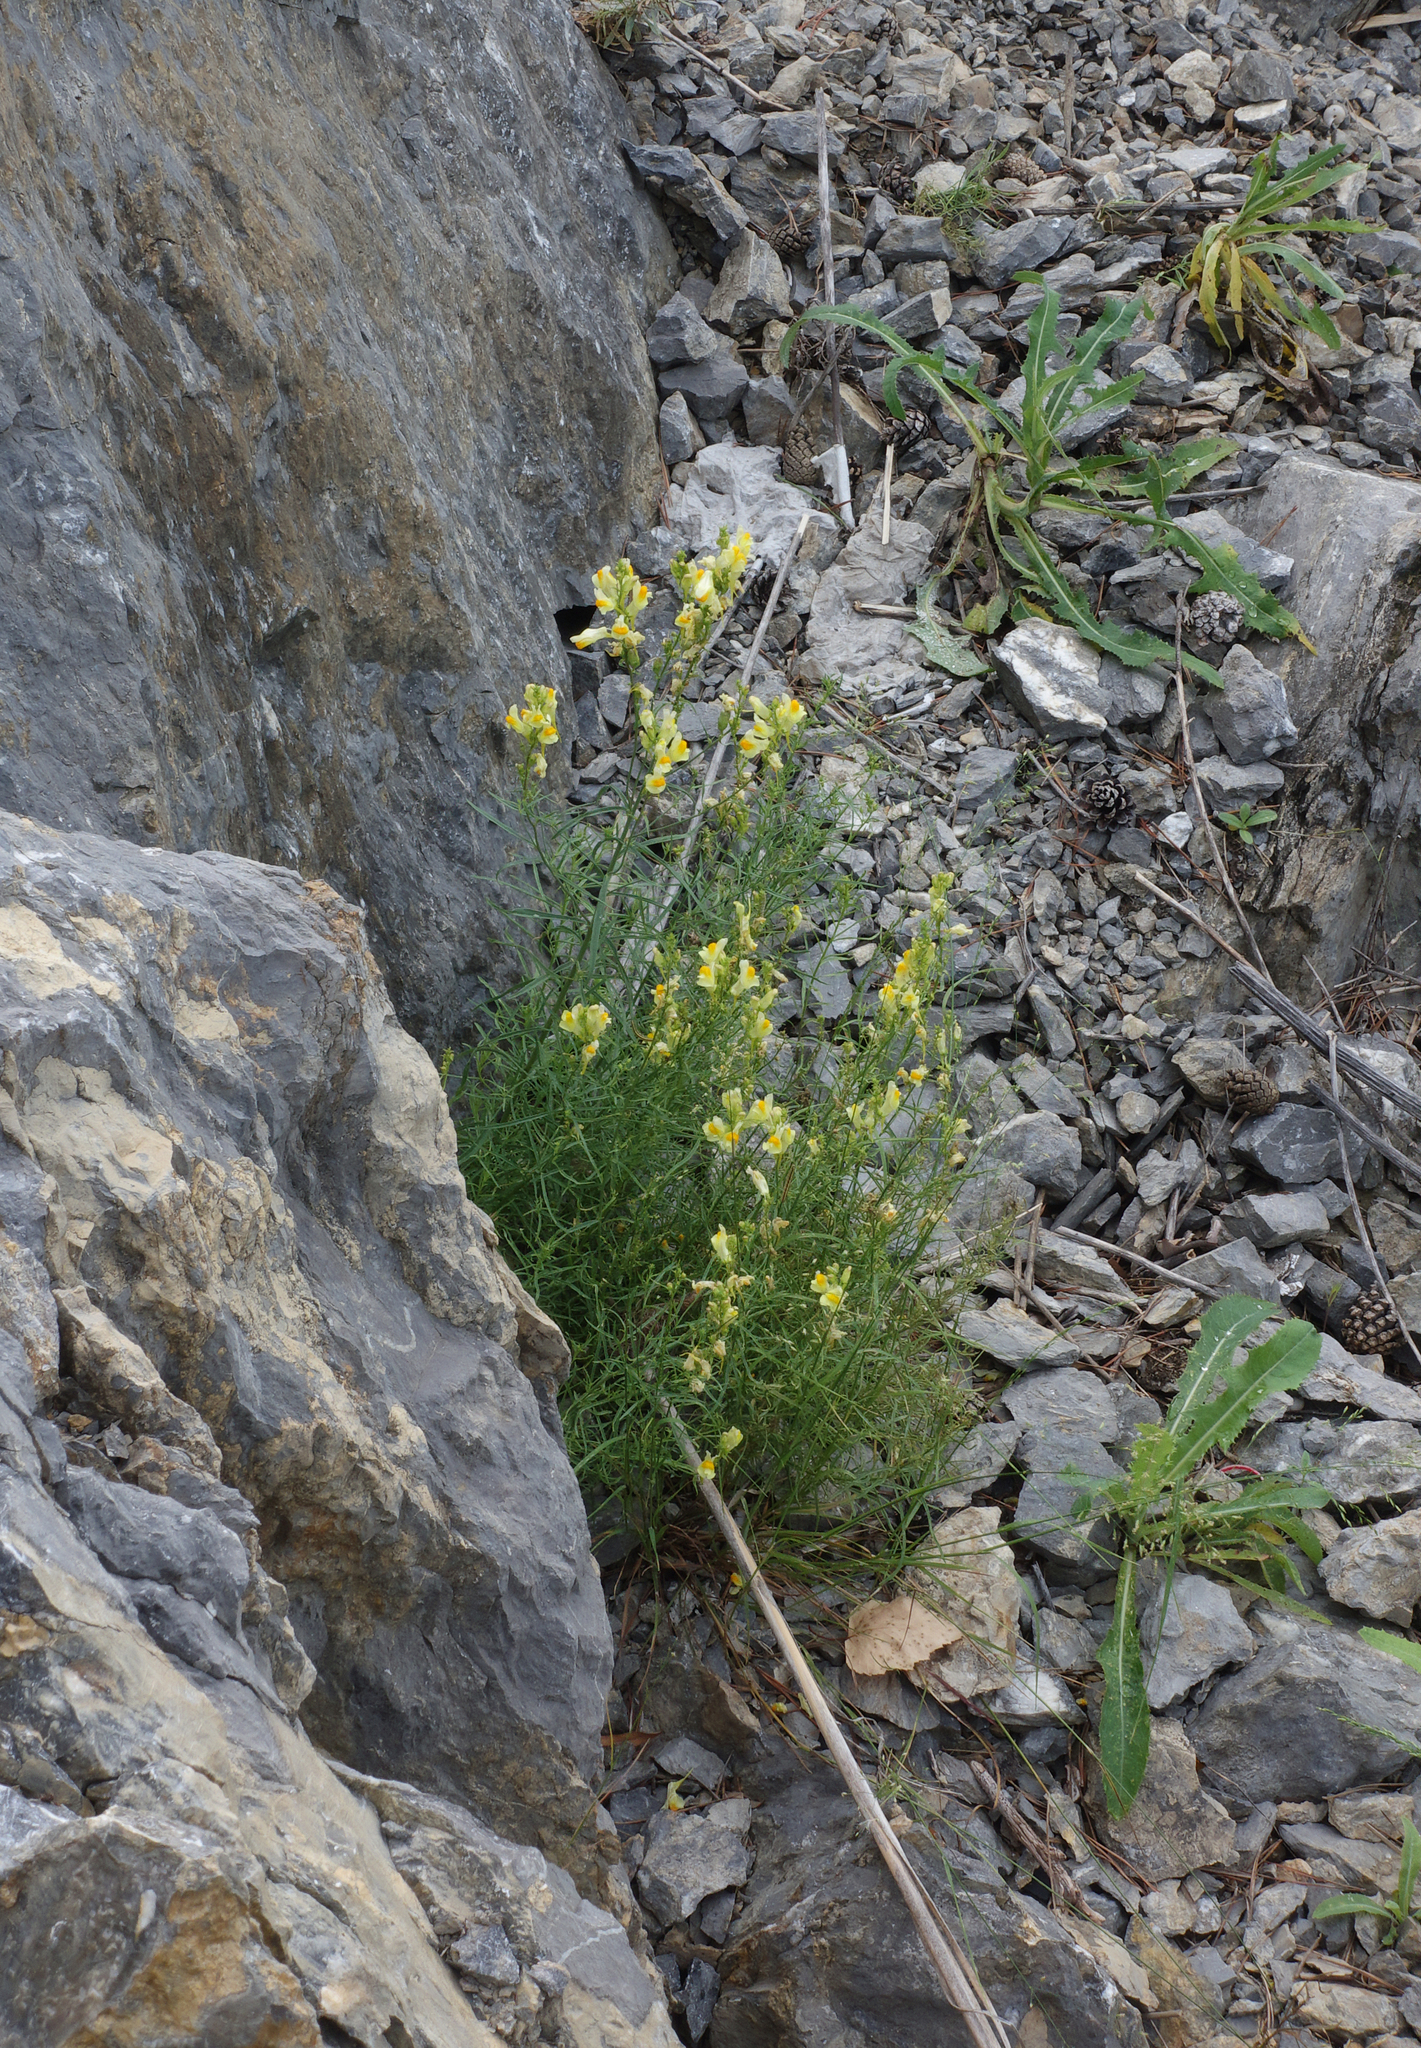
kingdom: Plantae
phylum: Tracheophyta
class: Magnoliopsida
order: Lamiales
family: Plantaginaceae
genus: Linaria
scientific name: Linaria vulgaris
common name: Butter and eggs
